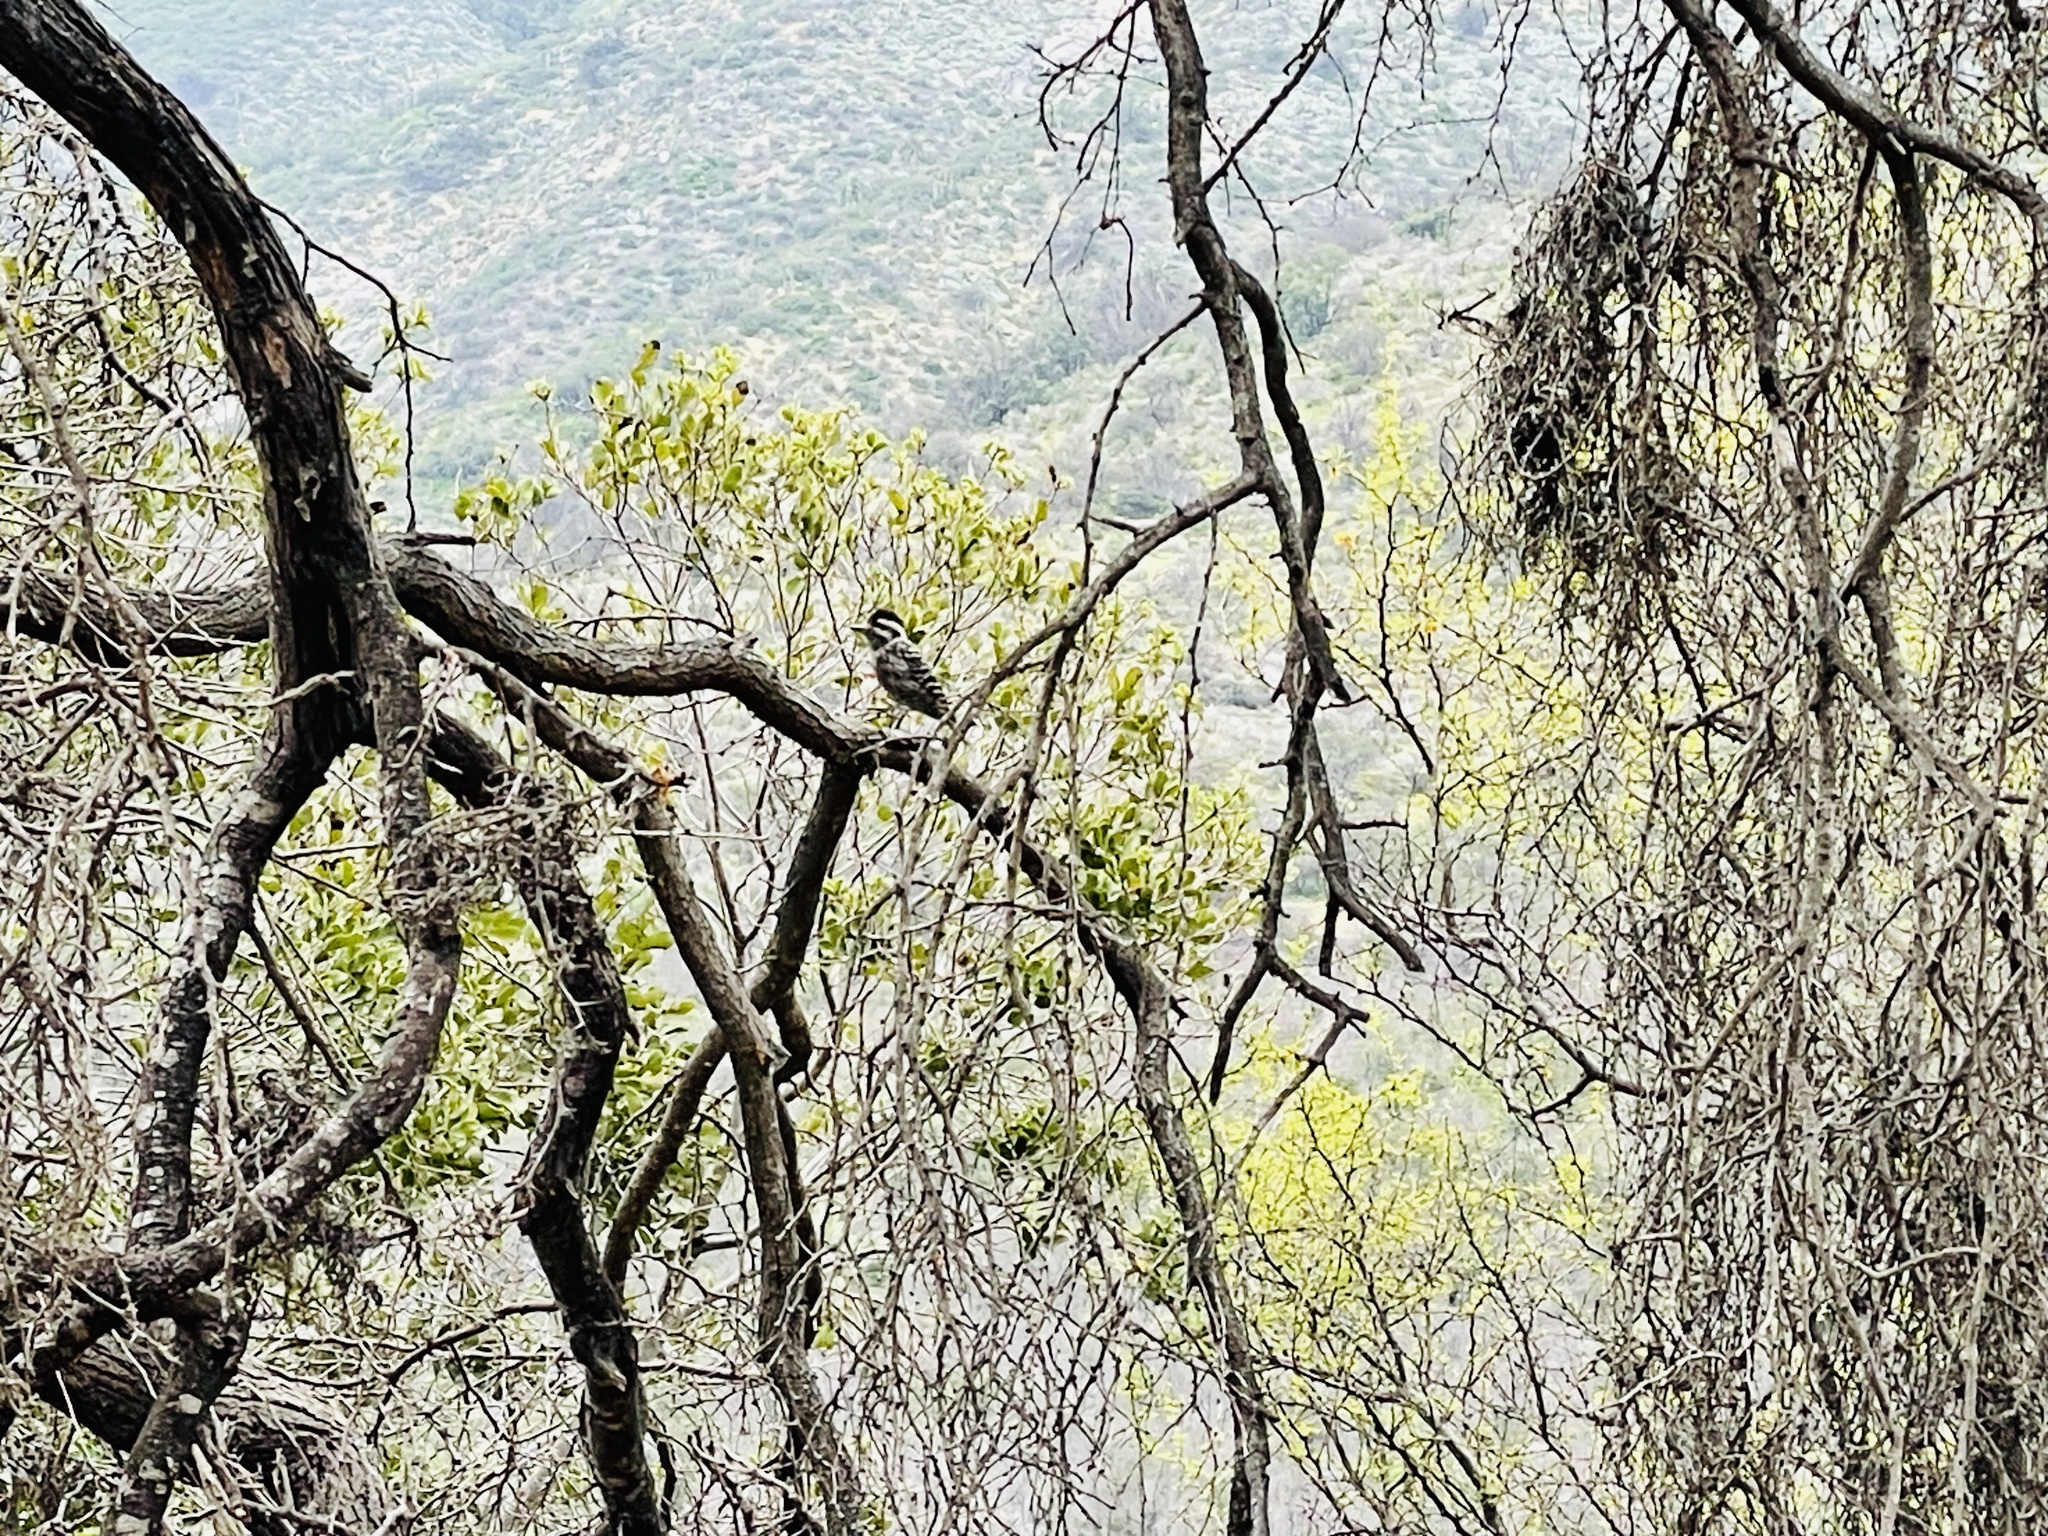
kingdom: Animalia
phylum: Chordata
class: Aves
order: Piciformes
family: Picidae
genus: Veniliornis
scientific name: Veniliornis lignarius
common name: Striped woodpecker
